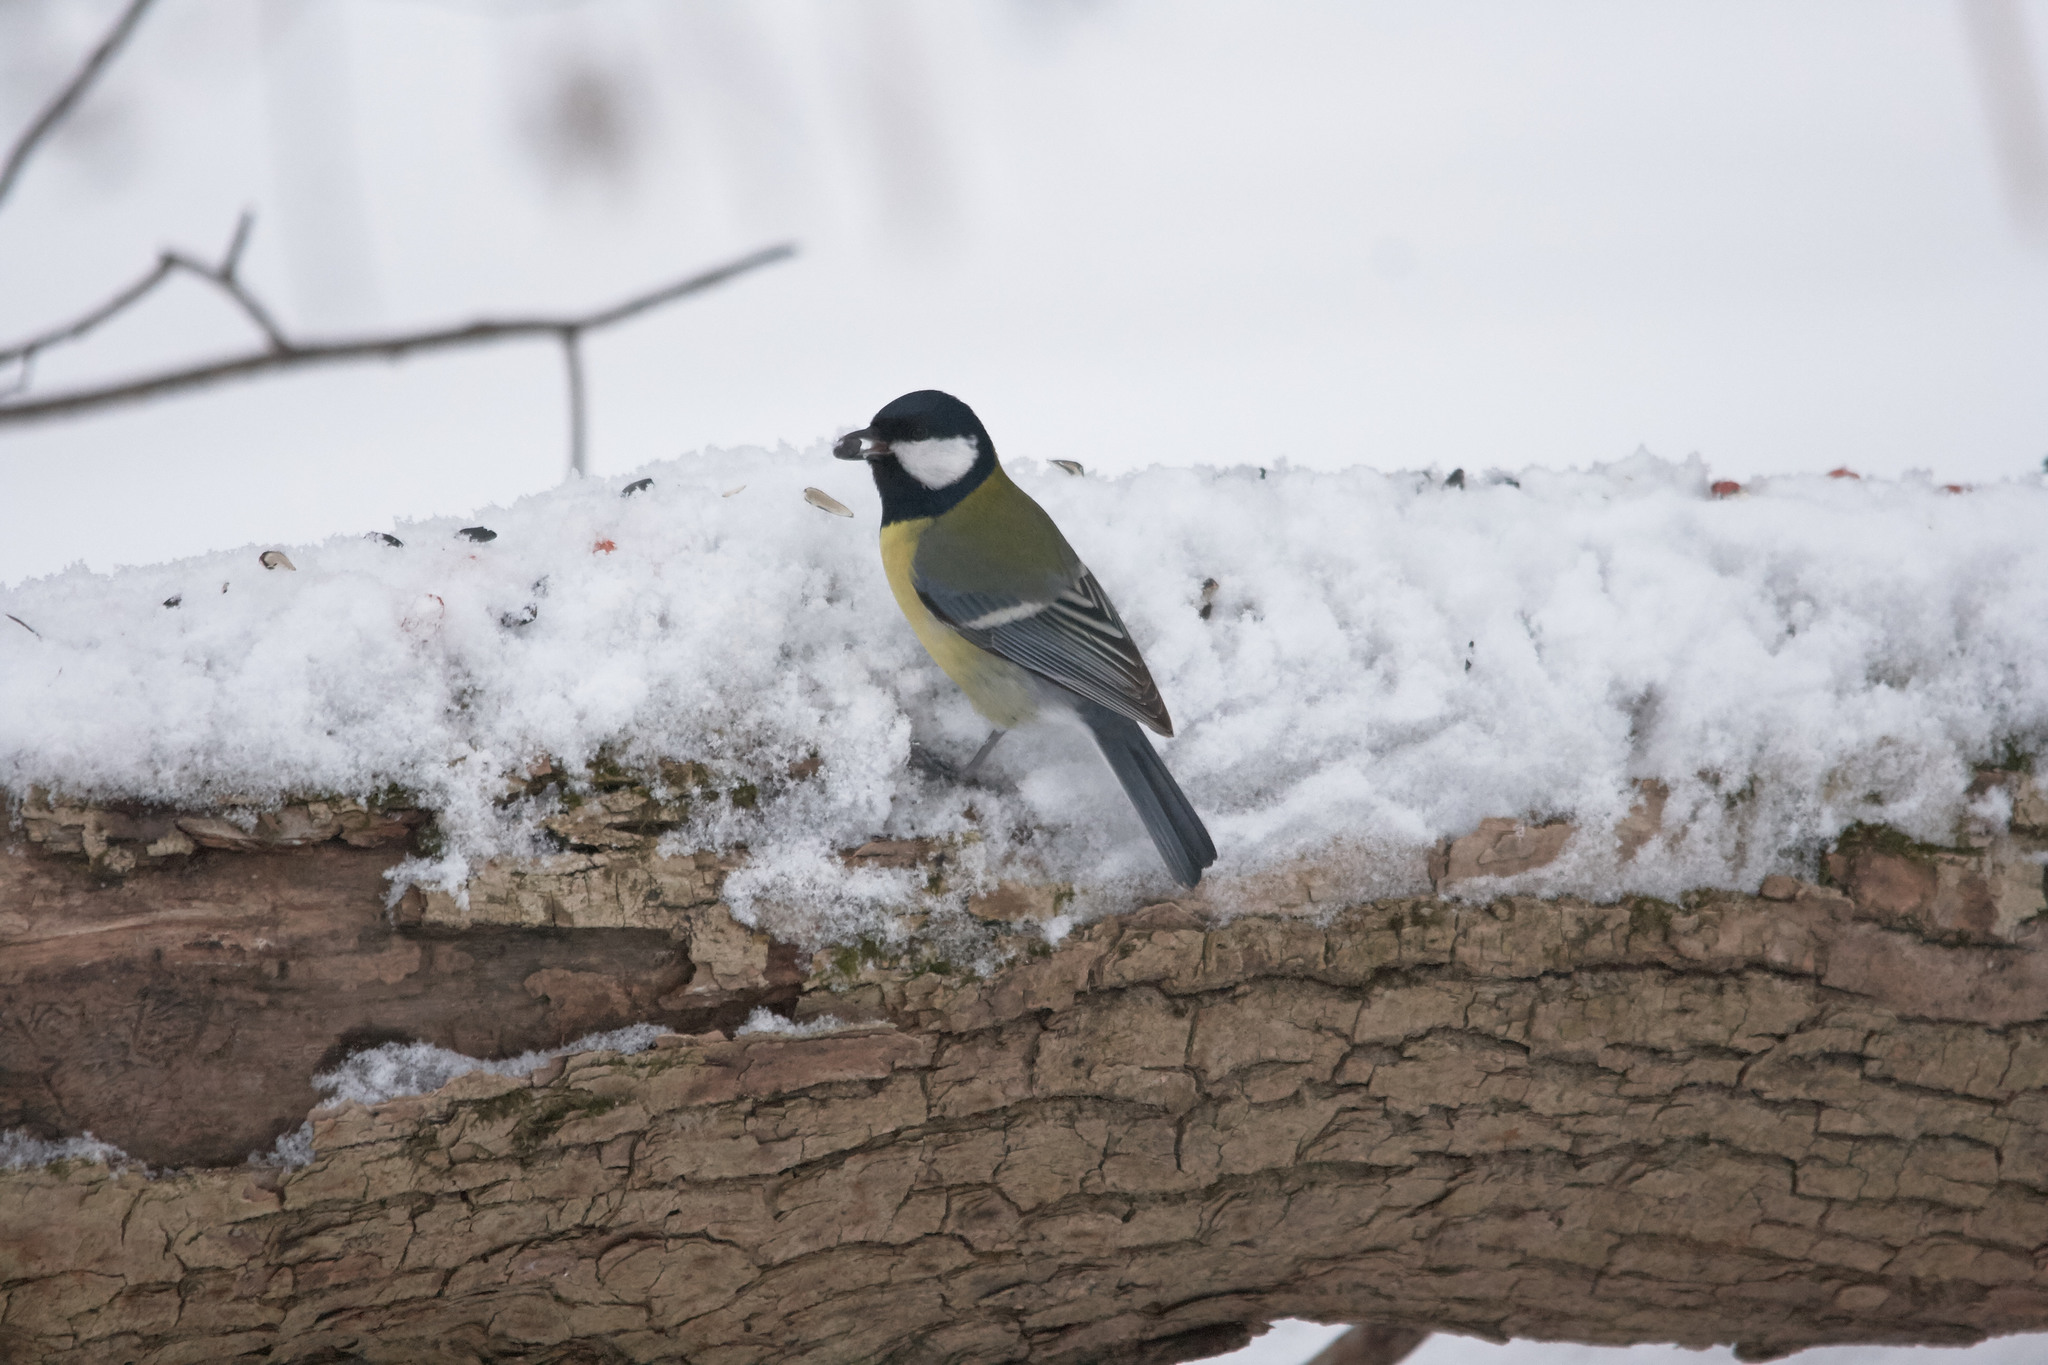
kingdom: Animalia
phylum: Chordata
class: Aves
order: Passeriformes
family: Paridae
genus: Parus
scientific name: Parus major
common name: Great tit
